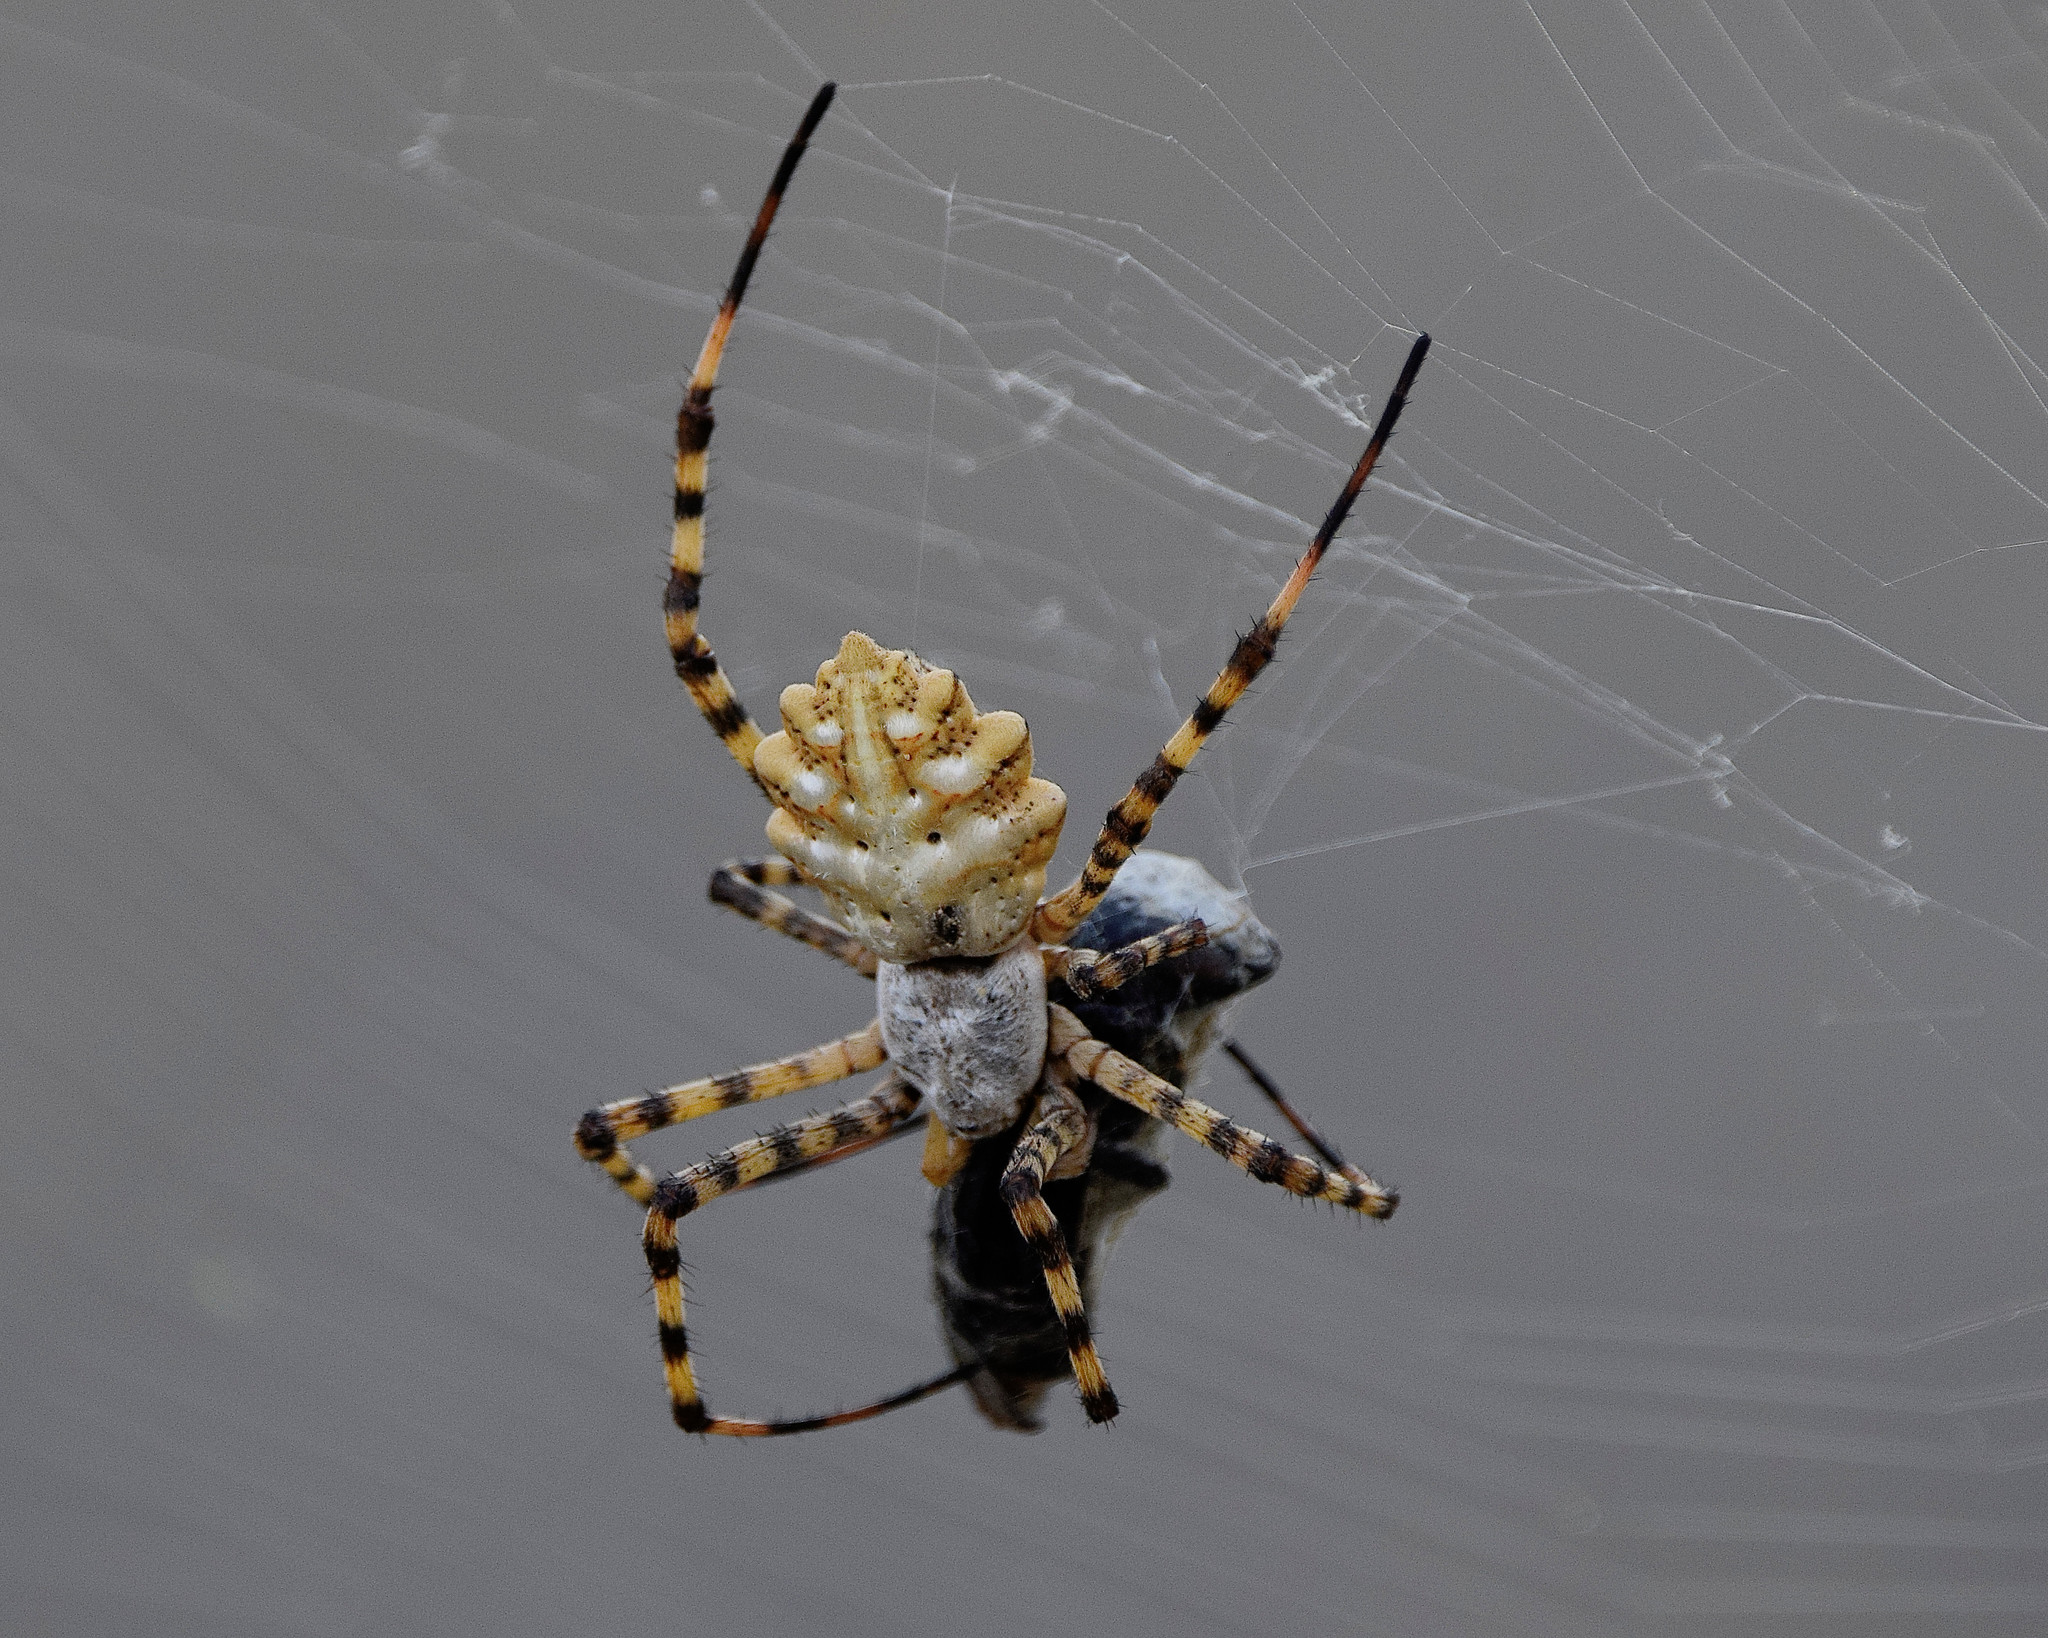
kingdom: Animalia
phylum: Arthropoda
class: Arachnida
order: Araneae
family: Araneidae
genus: Argiope
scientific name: Argiope lobata
